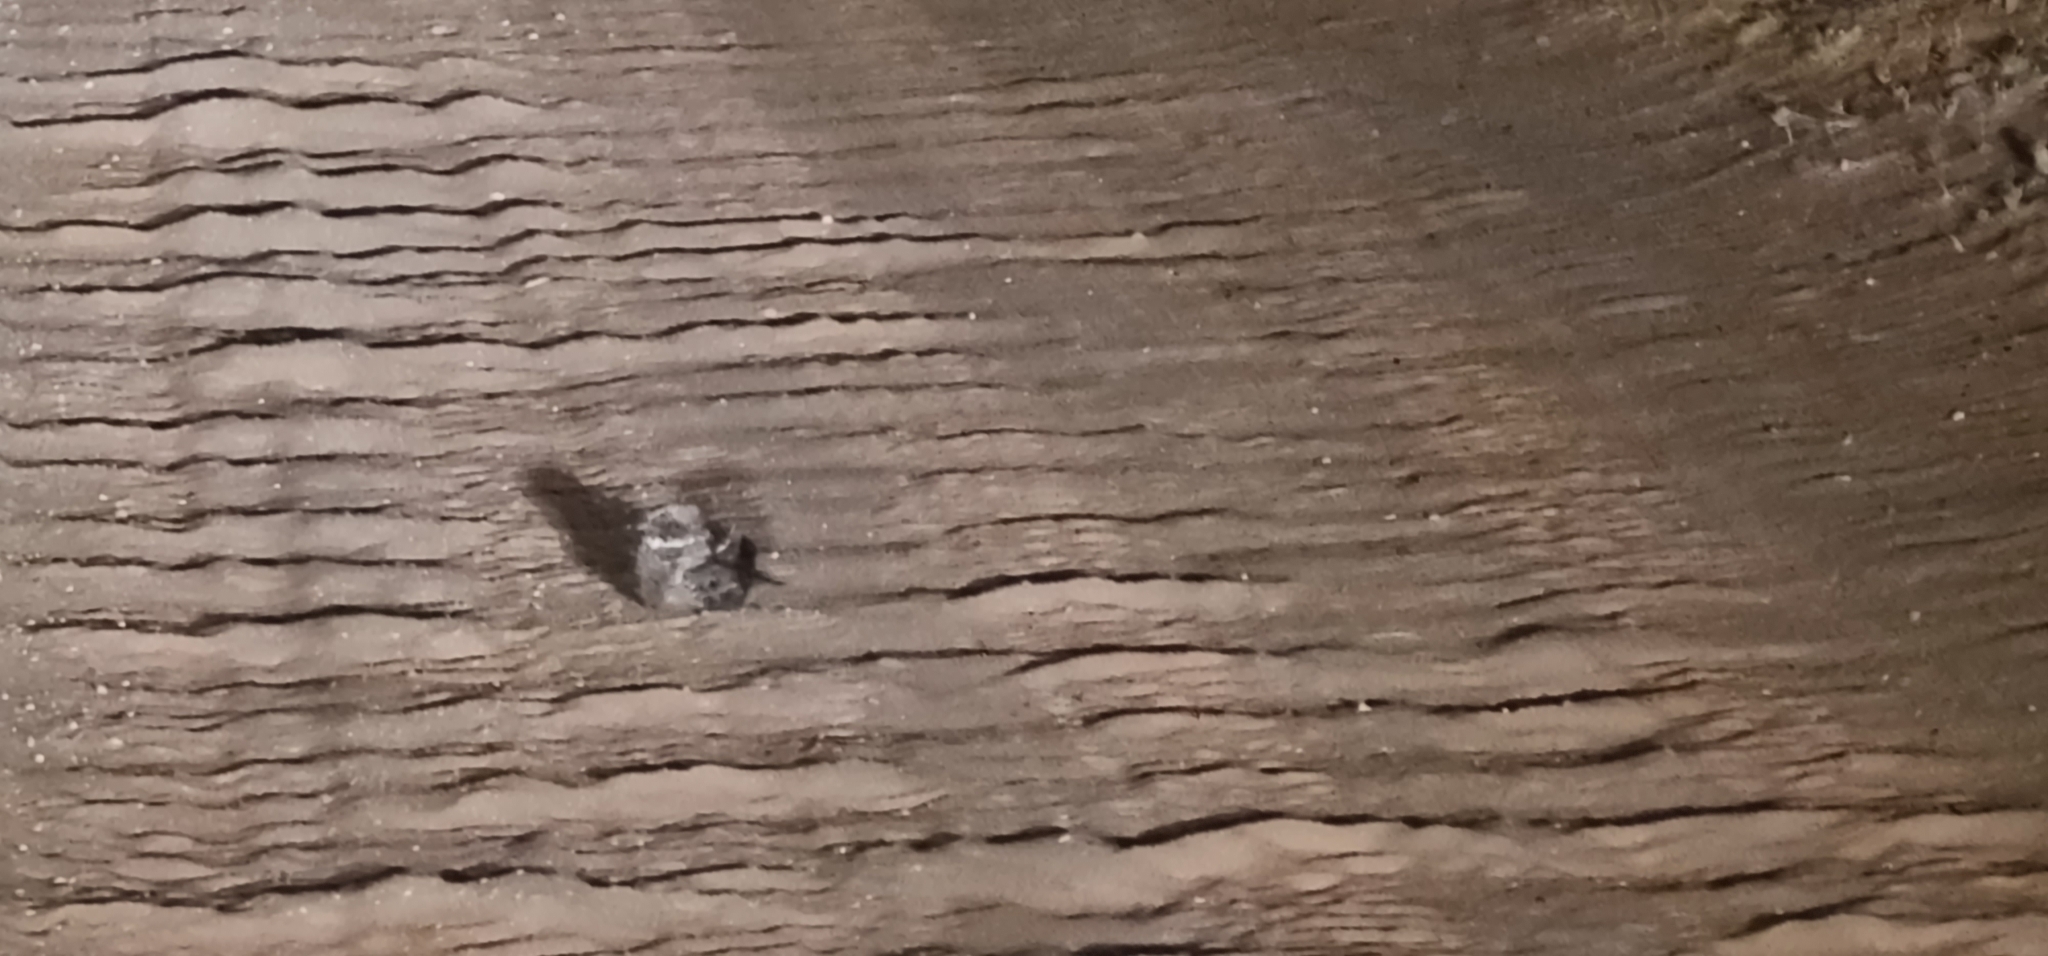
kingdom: Animalia
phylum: Chordata
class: Aves
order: Caprimulgiformes
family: Caprimulgidae
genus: Eurostopodus
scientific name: Eurostopodus argus
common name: Spotted nightjar
